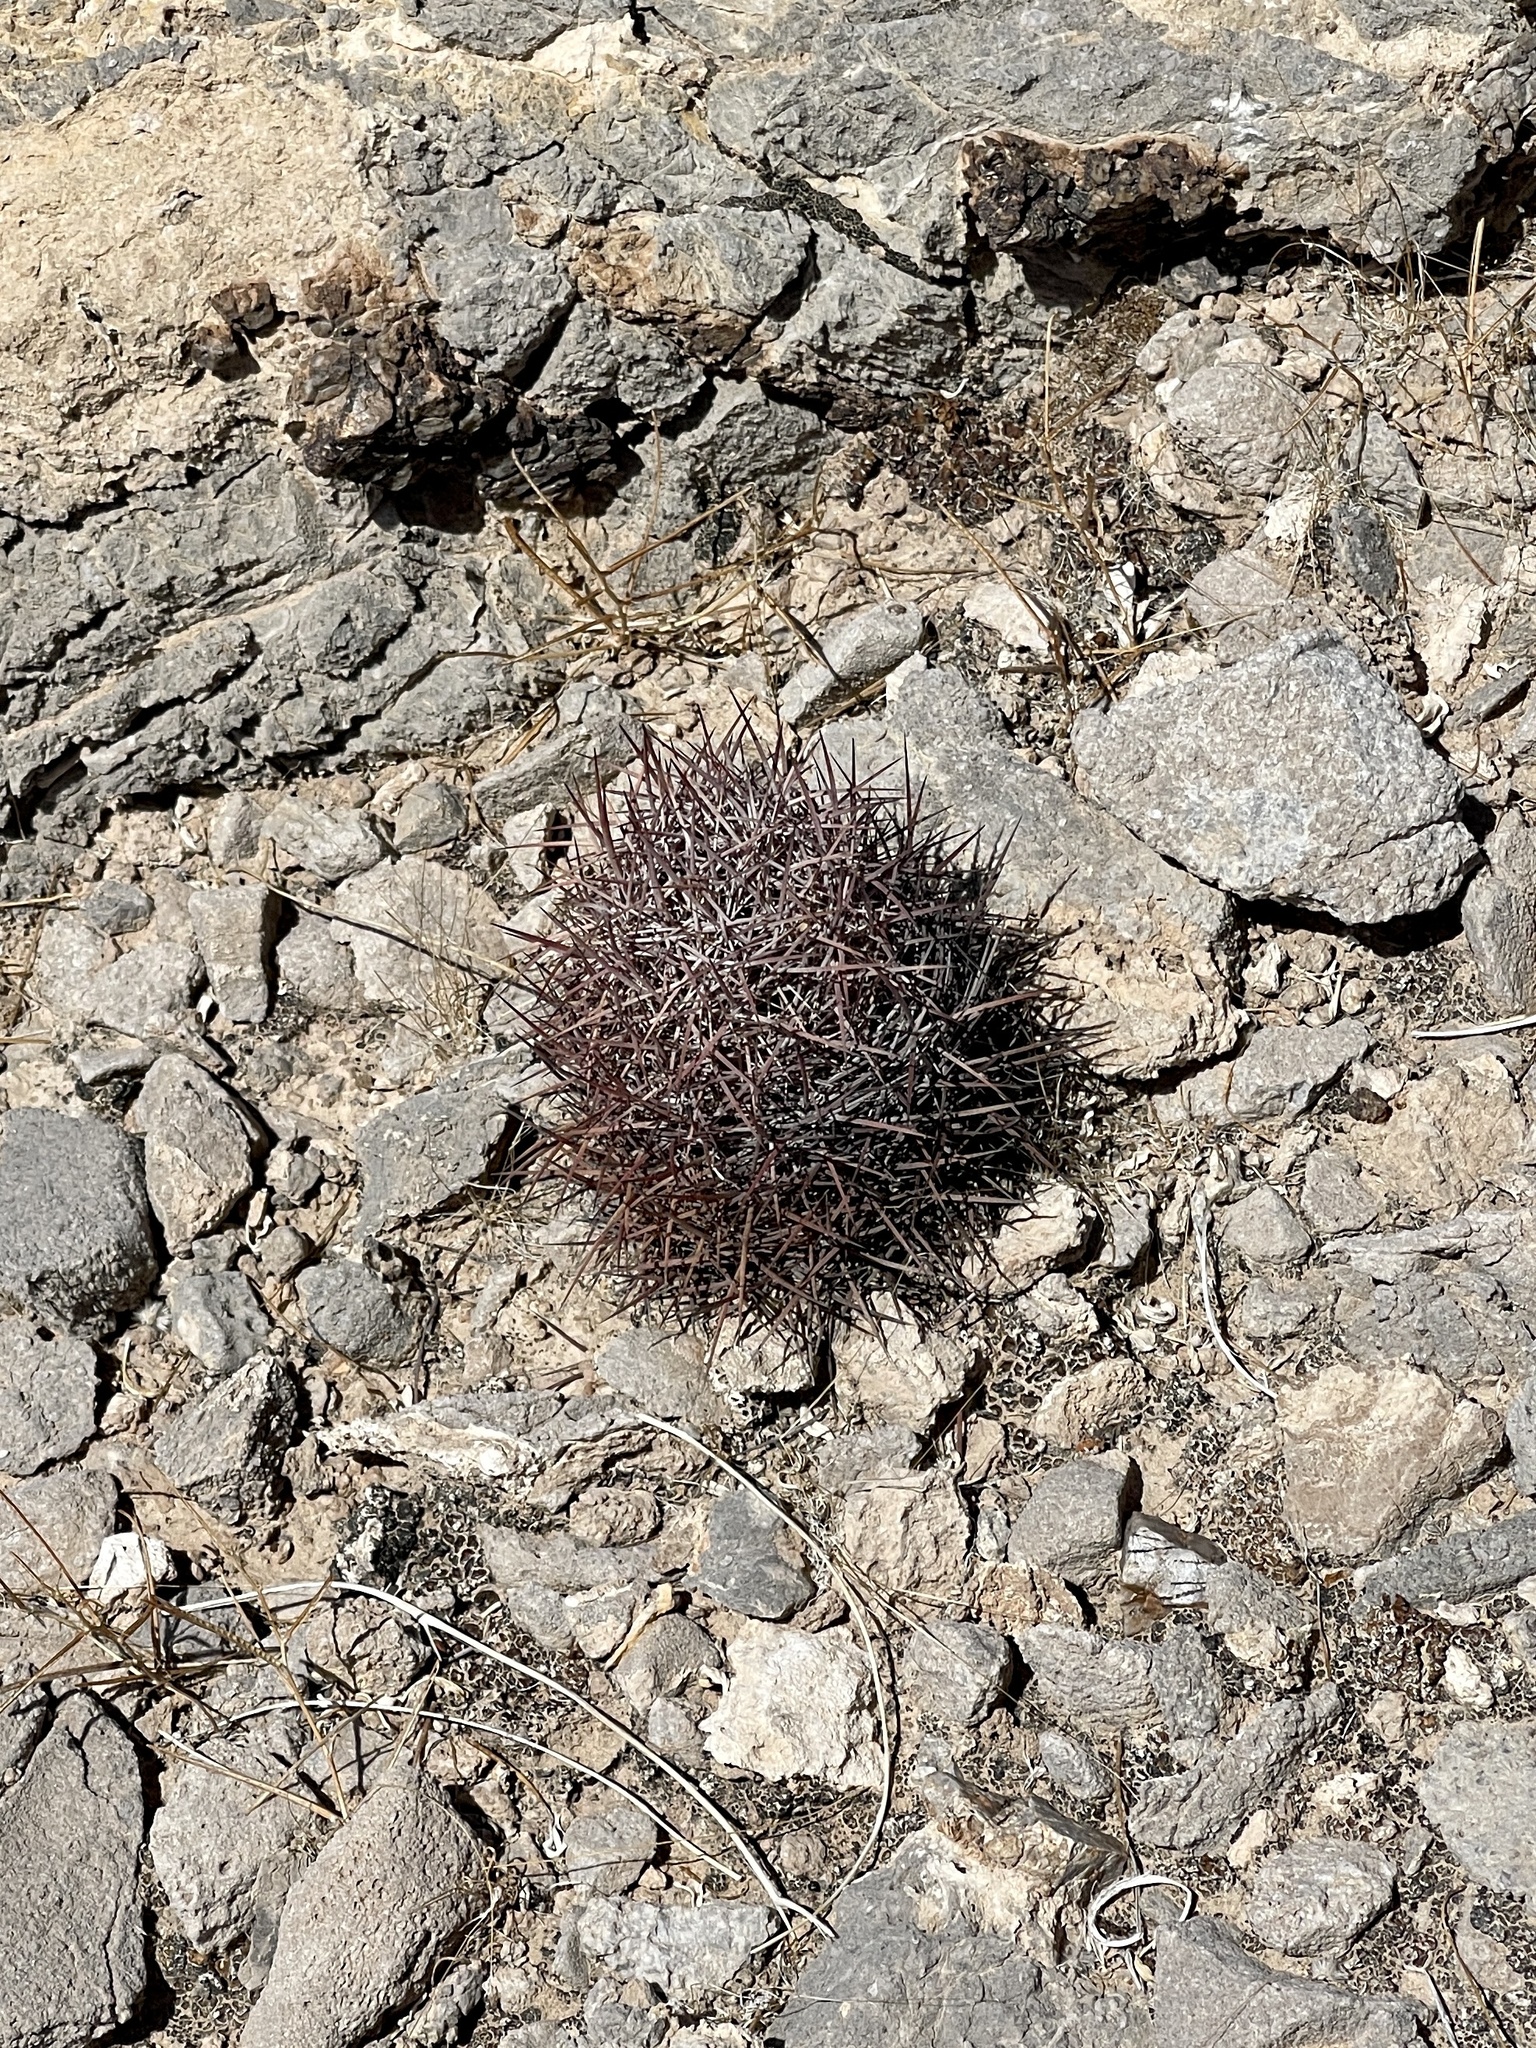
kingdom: Plantae
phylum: Tracheophyta
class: Magnoliopsida
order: Caryophyllales
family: Cactaceae
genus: Sclerocactus
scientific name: Sclerocactus johnsonii
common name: Eight-spine fishhook cactus
